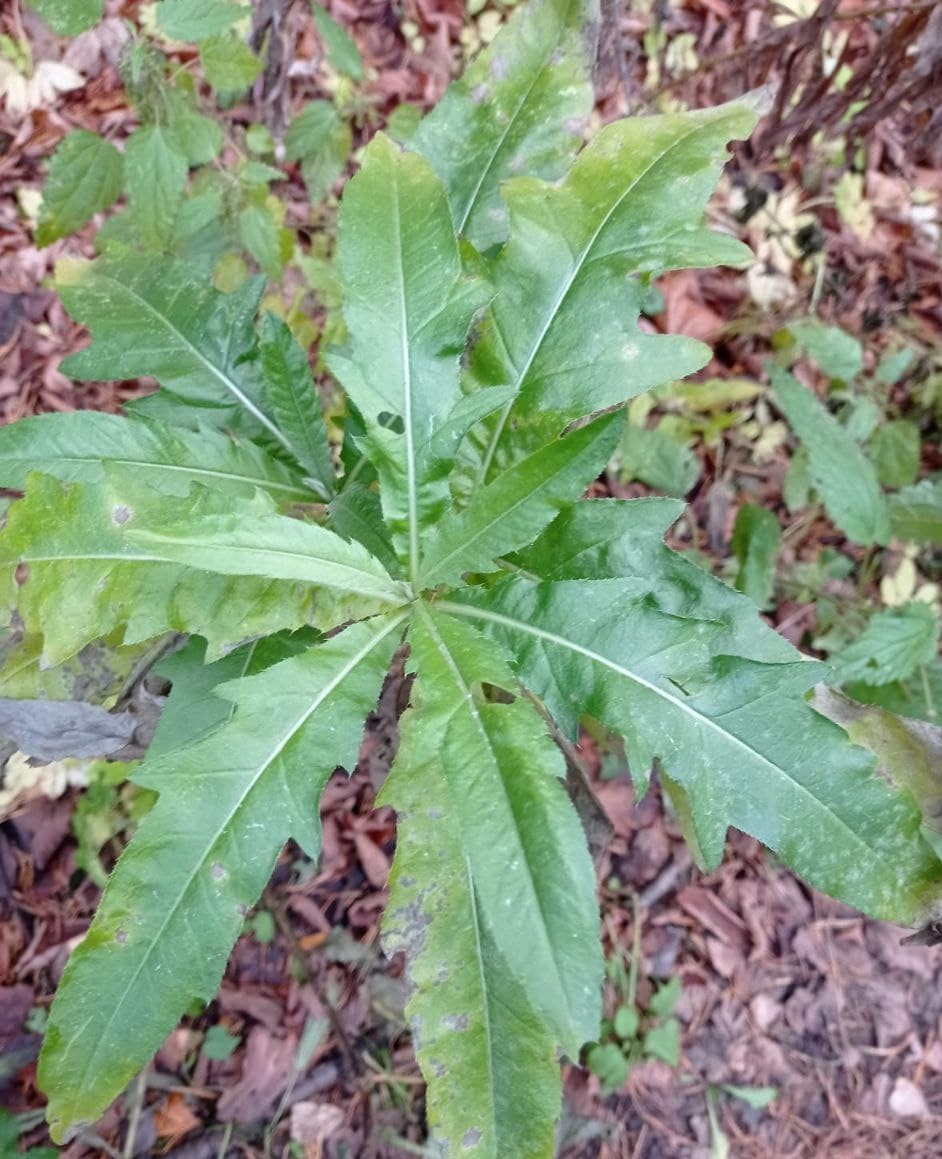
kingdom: Plantae
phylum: Tracheophyta
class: Magnoliopsida
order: Asterales
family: Asteraceae
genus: Cirsium
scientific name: Cirsium arvense
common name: Creeping thistle
